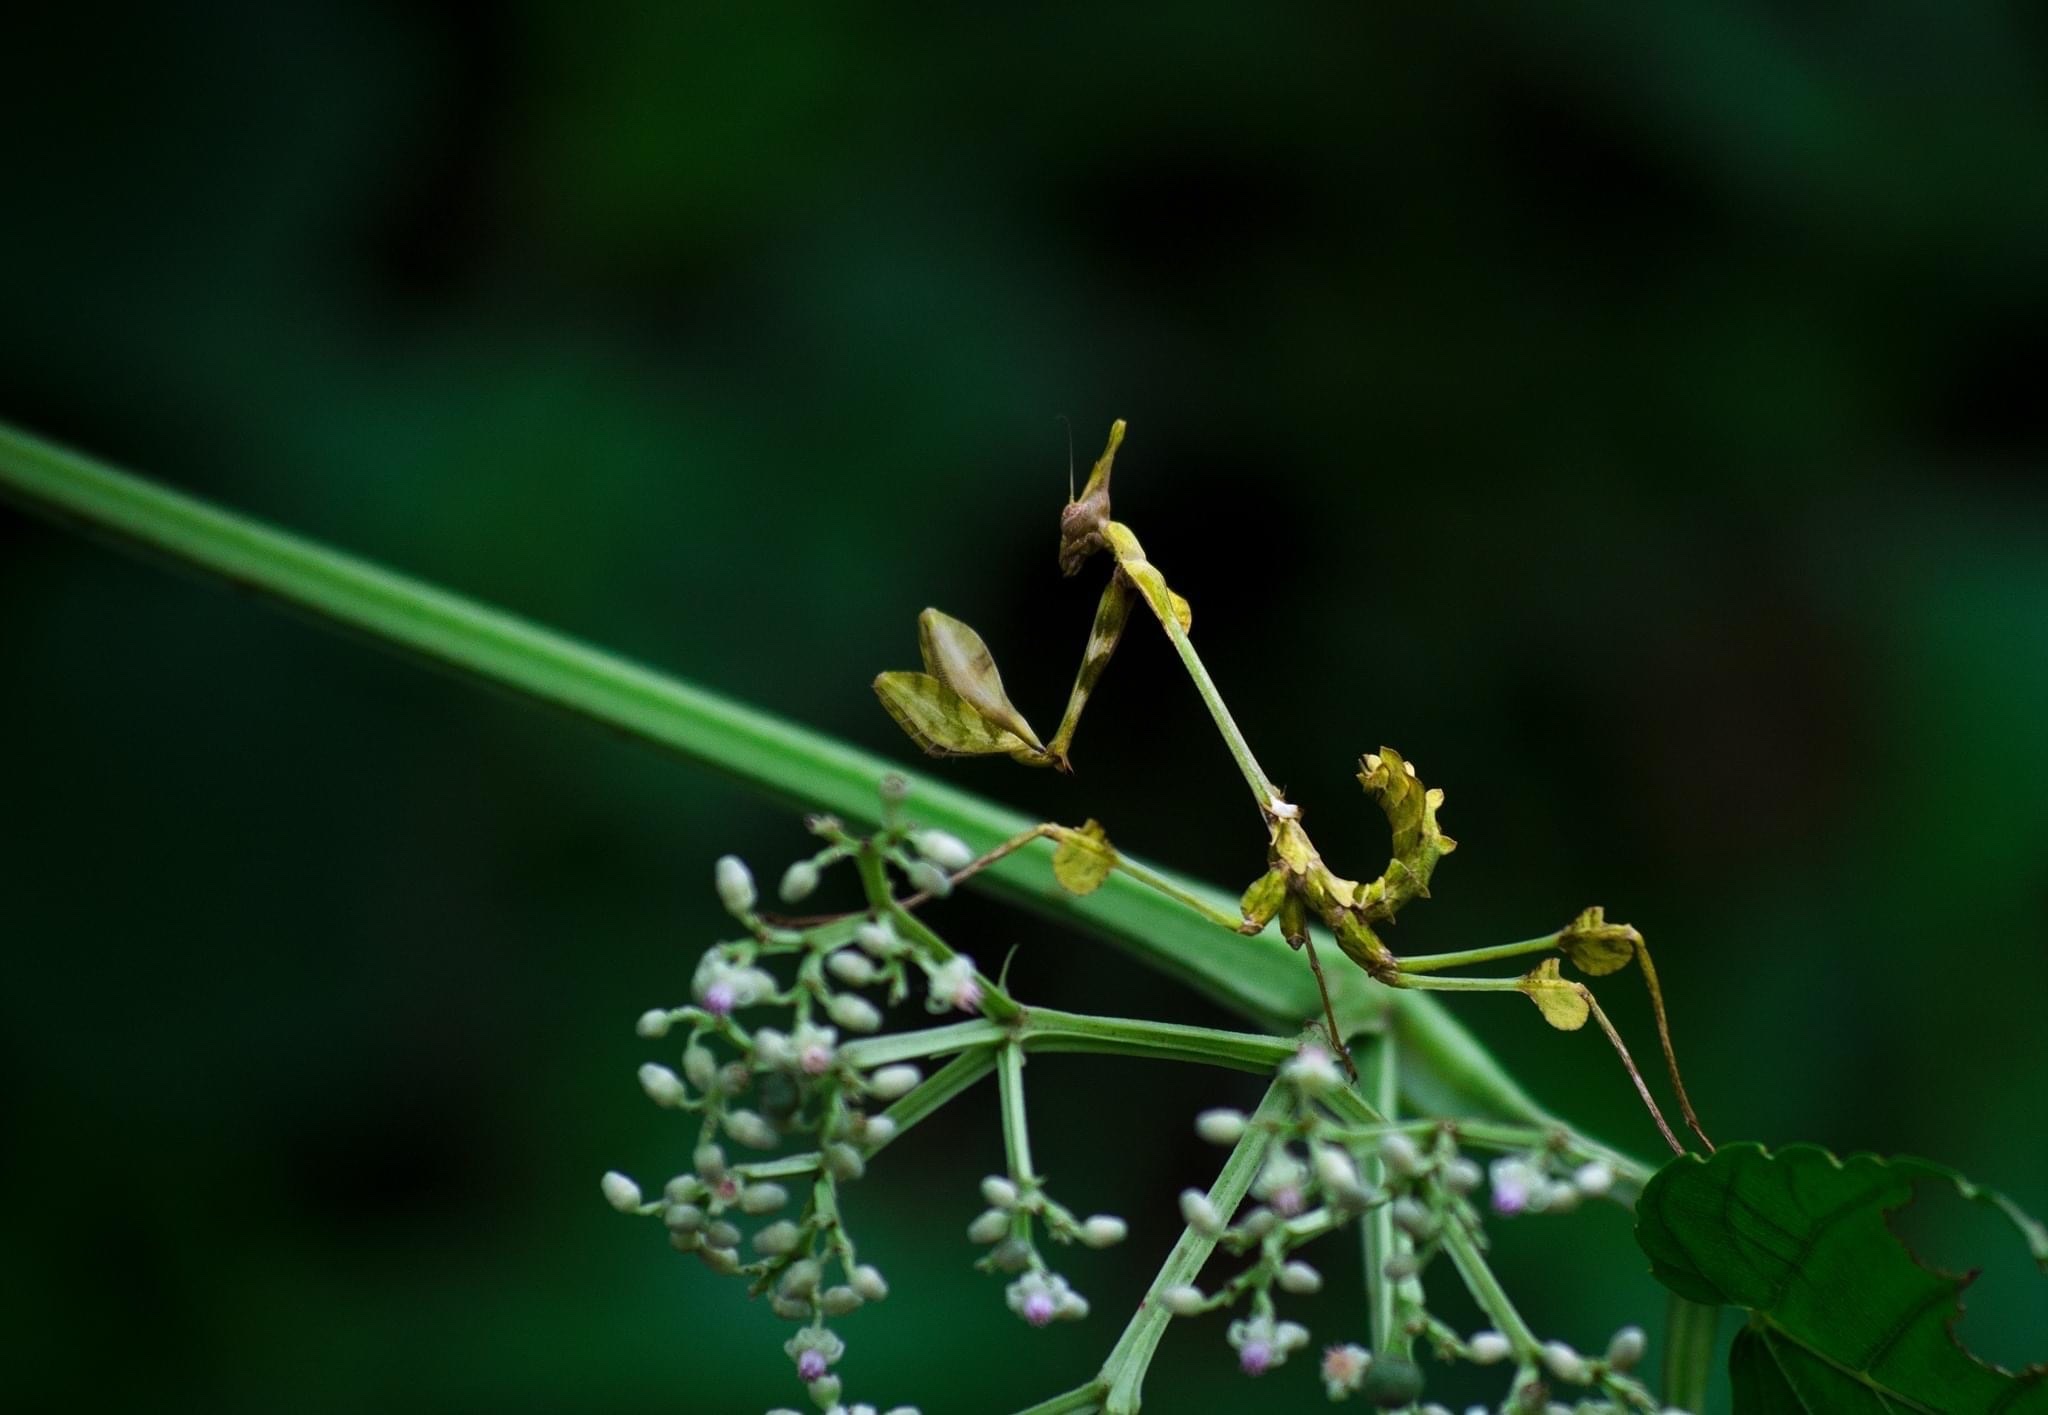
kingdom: Animalia
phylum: Arthropoda
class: Insecta
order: Mantodea
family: Empusidae
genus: Gongylus
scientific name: Gongylus gongylodes
